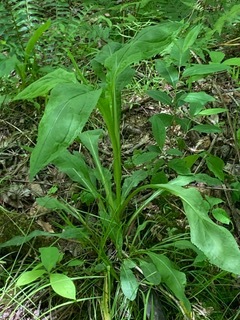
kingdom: Plantae
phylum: Tracheophyta
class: Magnoliopsida
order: Asterales
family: Asteraceae
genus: Solidago
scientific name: Solidago patula
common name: Rough-leaf goldenrod
